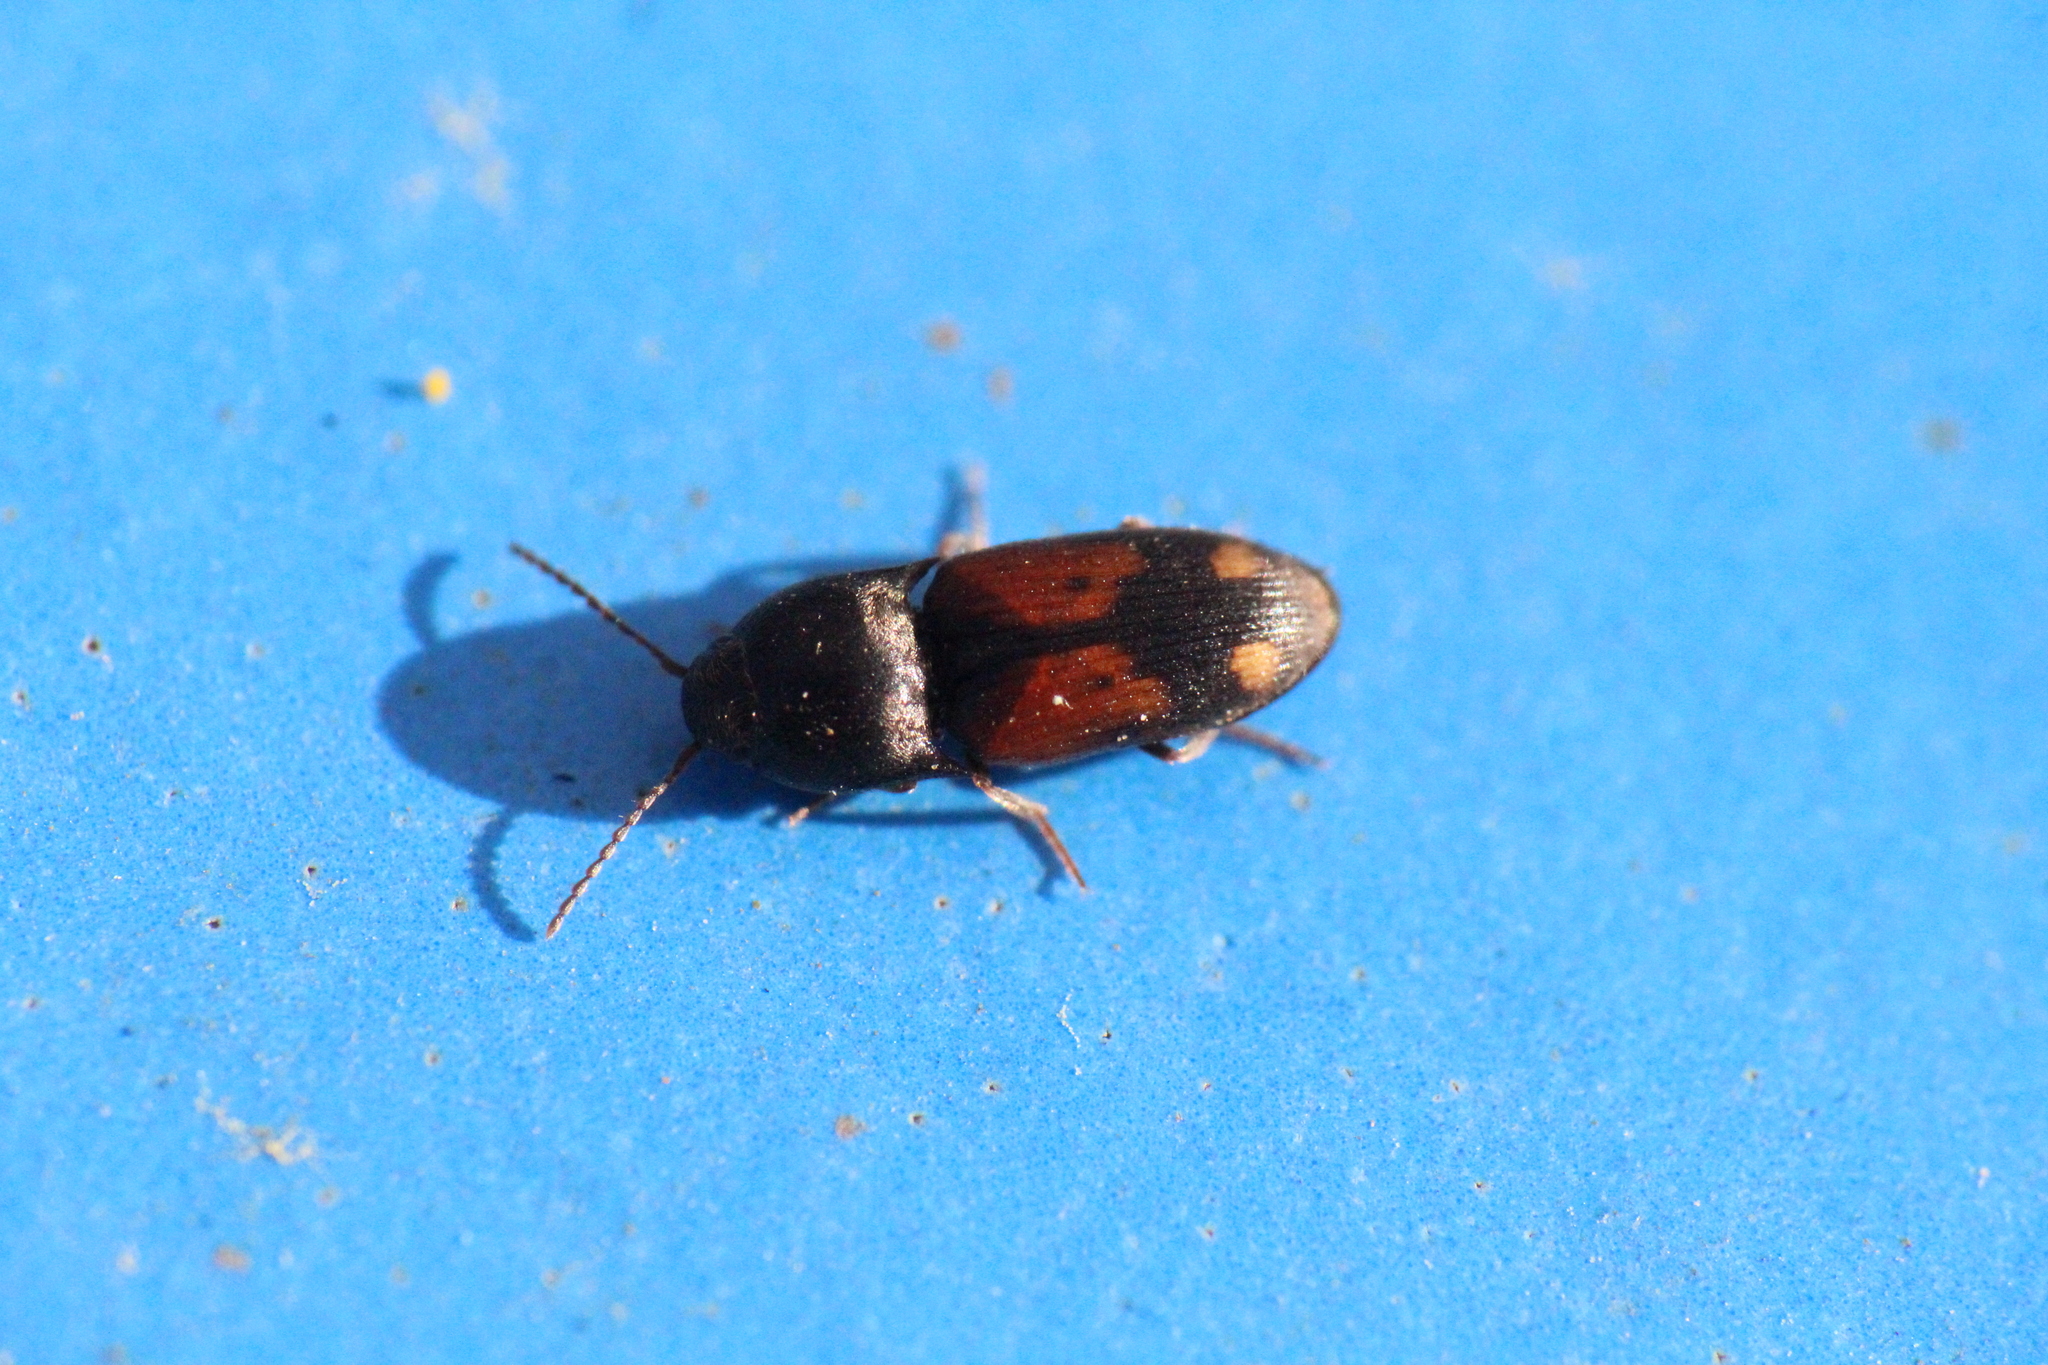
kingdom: Animalia
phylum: Arthropoda
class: Insecta
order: Coleoptera
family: Elateridae
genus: Drasterius
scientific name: Drasterius bimaculatus
